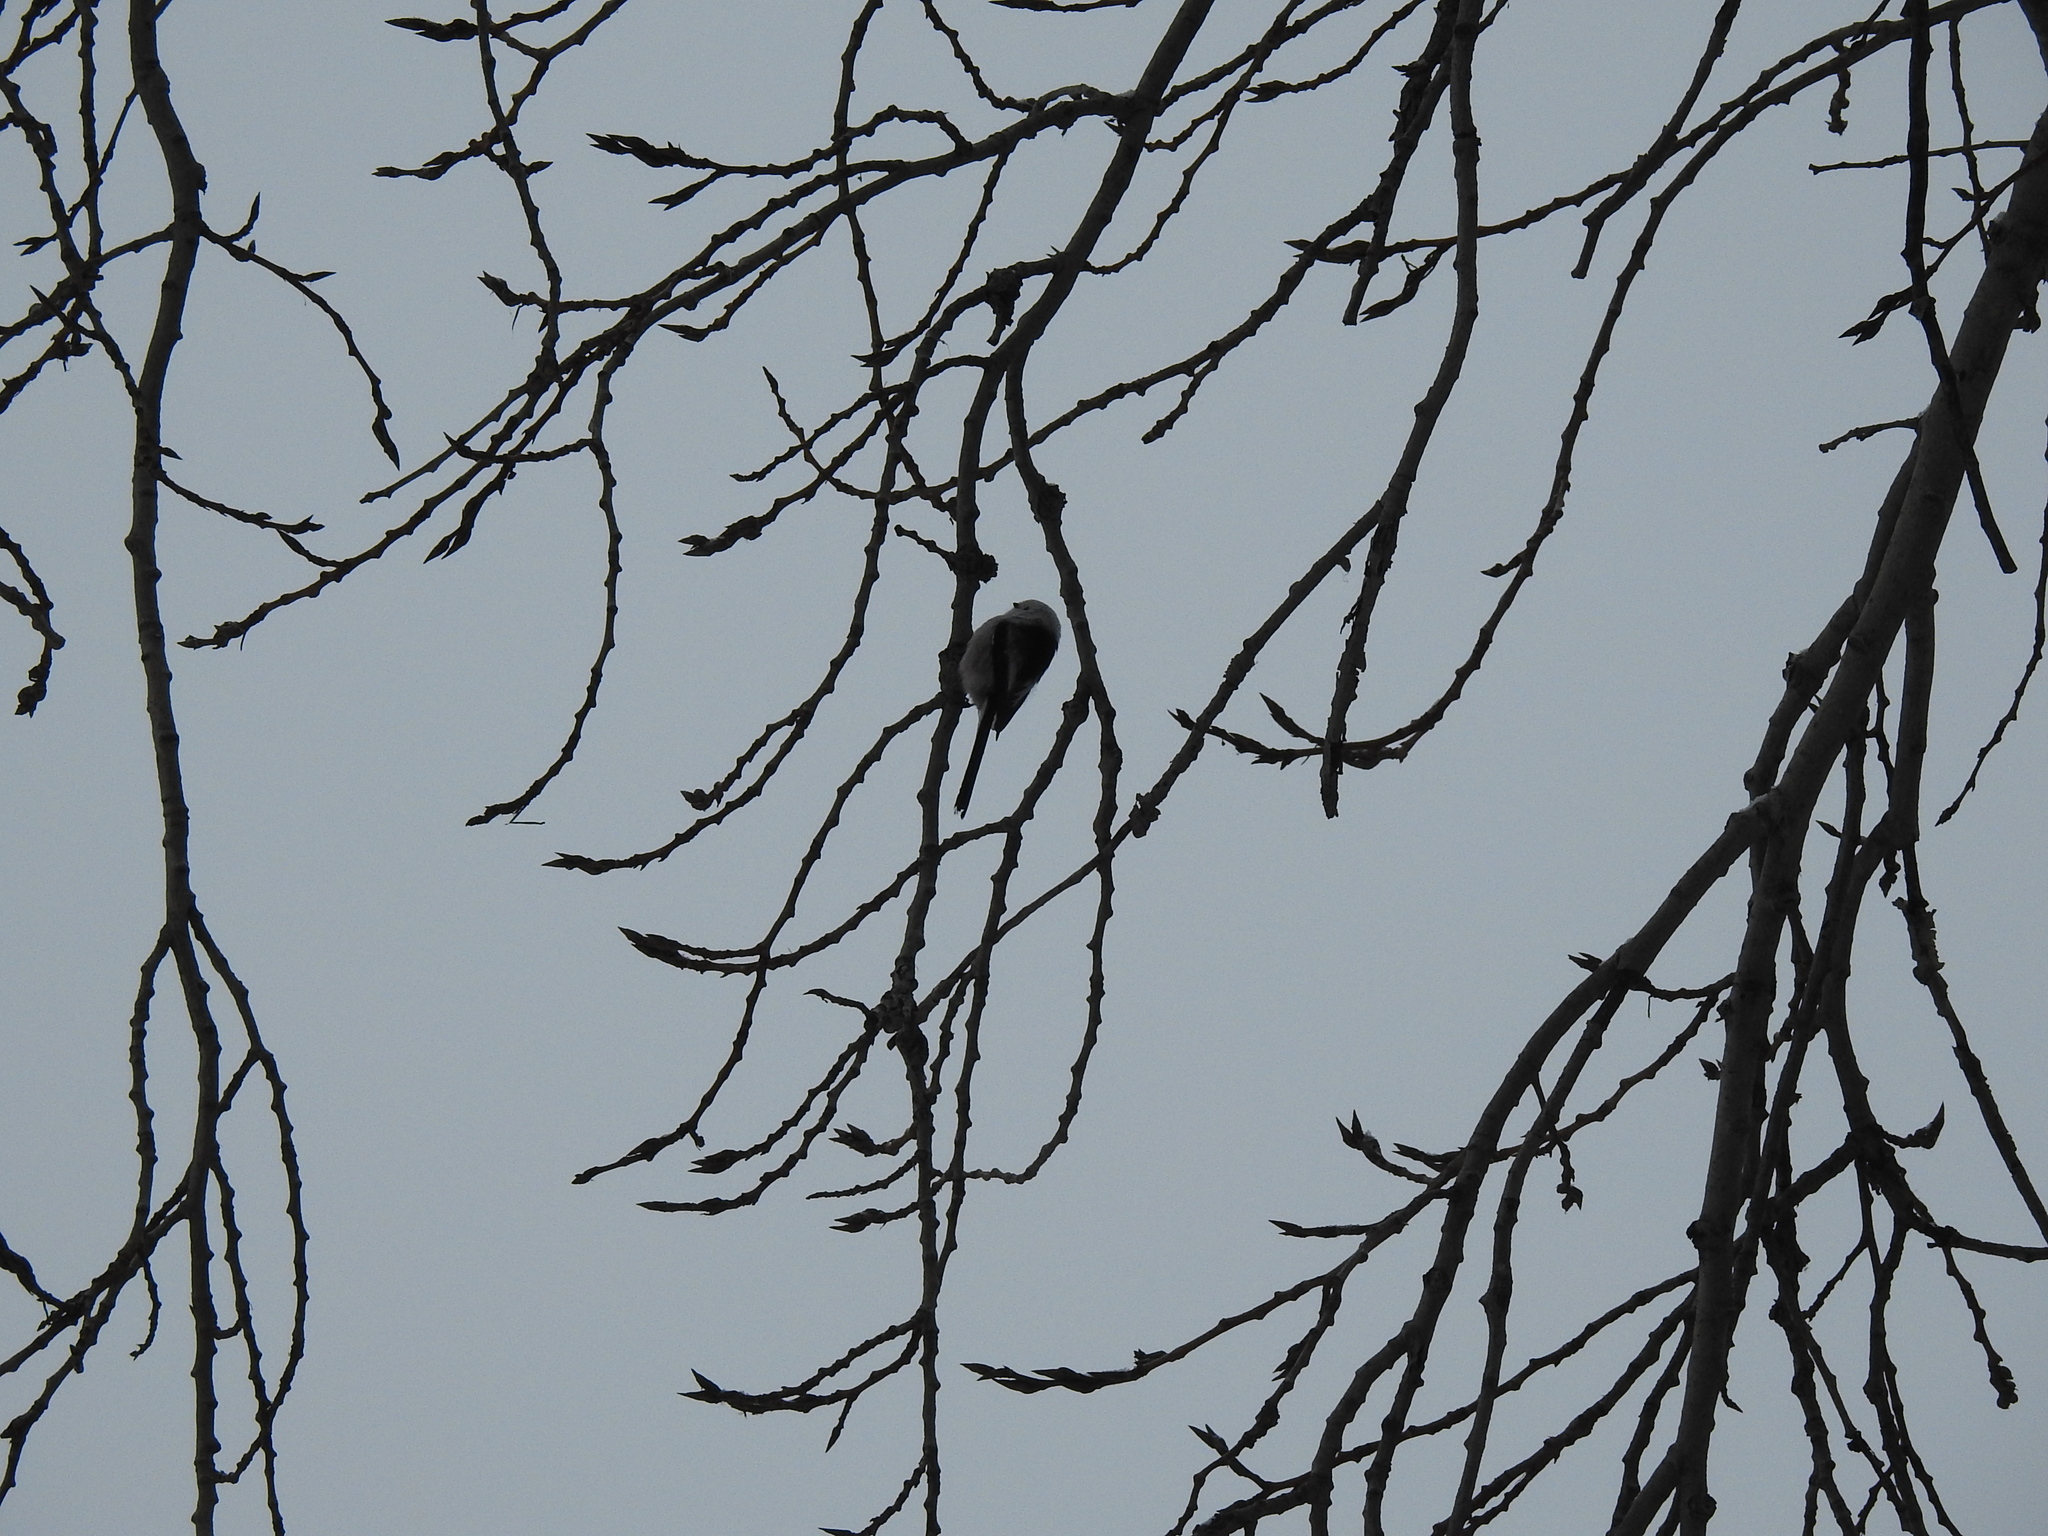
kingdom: Animalia
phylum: Chordata
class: Aves
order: Passeriformes
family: Aegithalidae
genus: Aegithalos
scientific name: Aegithalos caudatus
